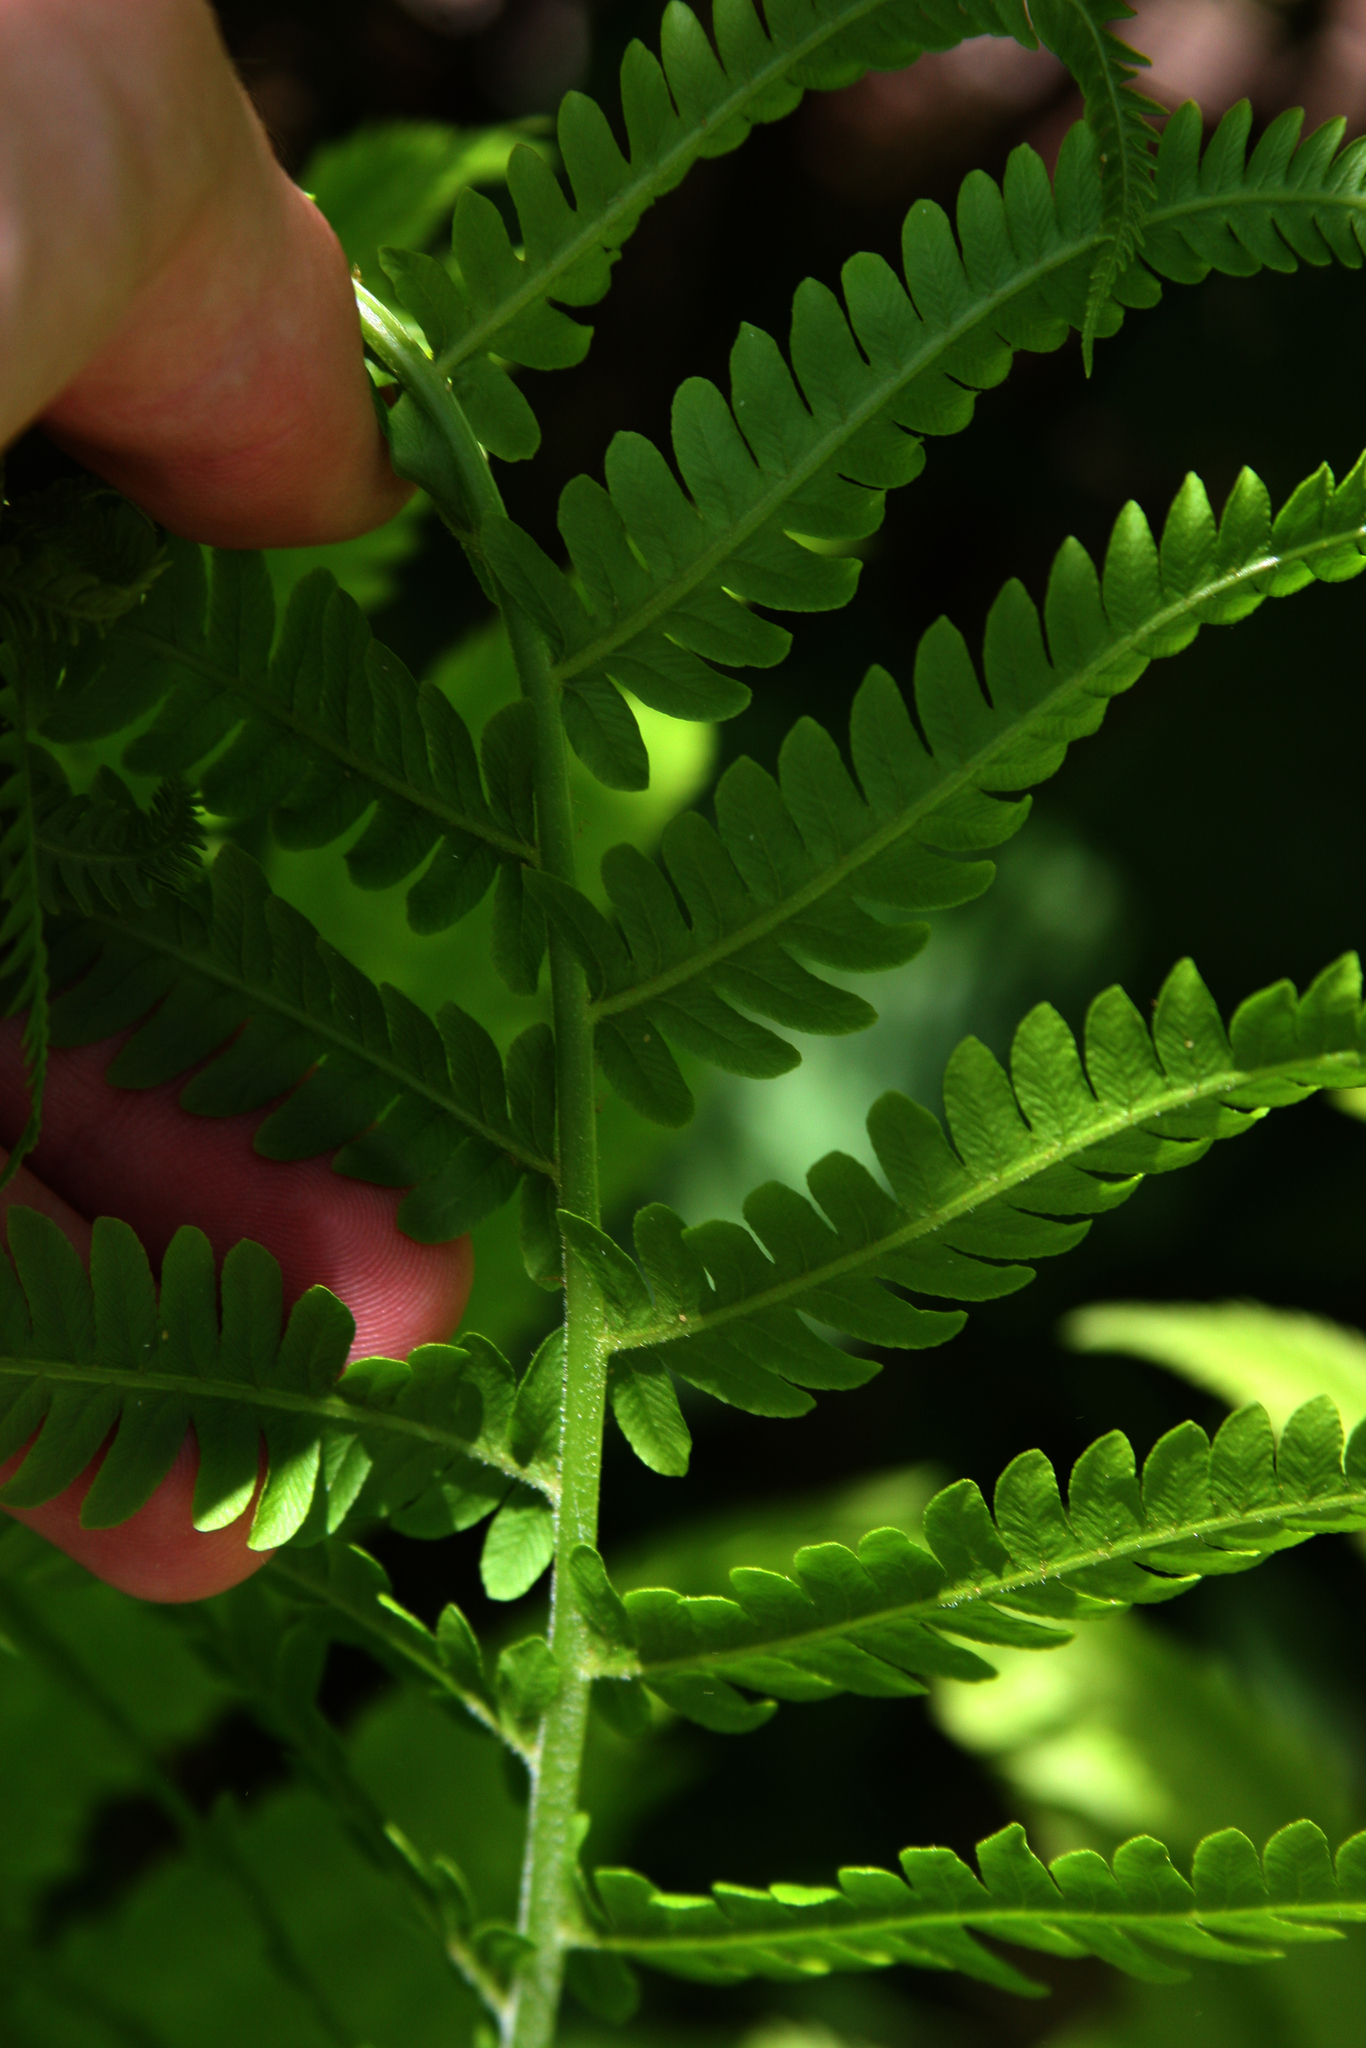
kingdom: Plantae
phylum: Tracheophyta
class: Polypodiopsida
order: Polypodiales
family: Onocleaceae
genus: Matteuccia
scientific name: Matteuccia struthiopteris
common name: Ostrich fern
